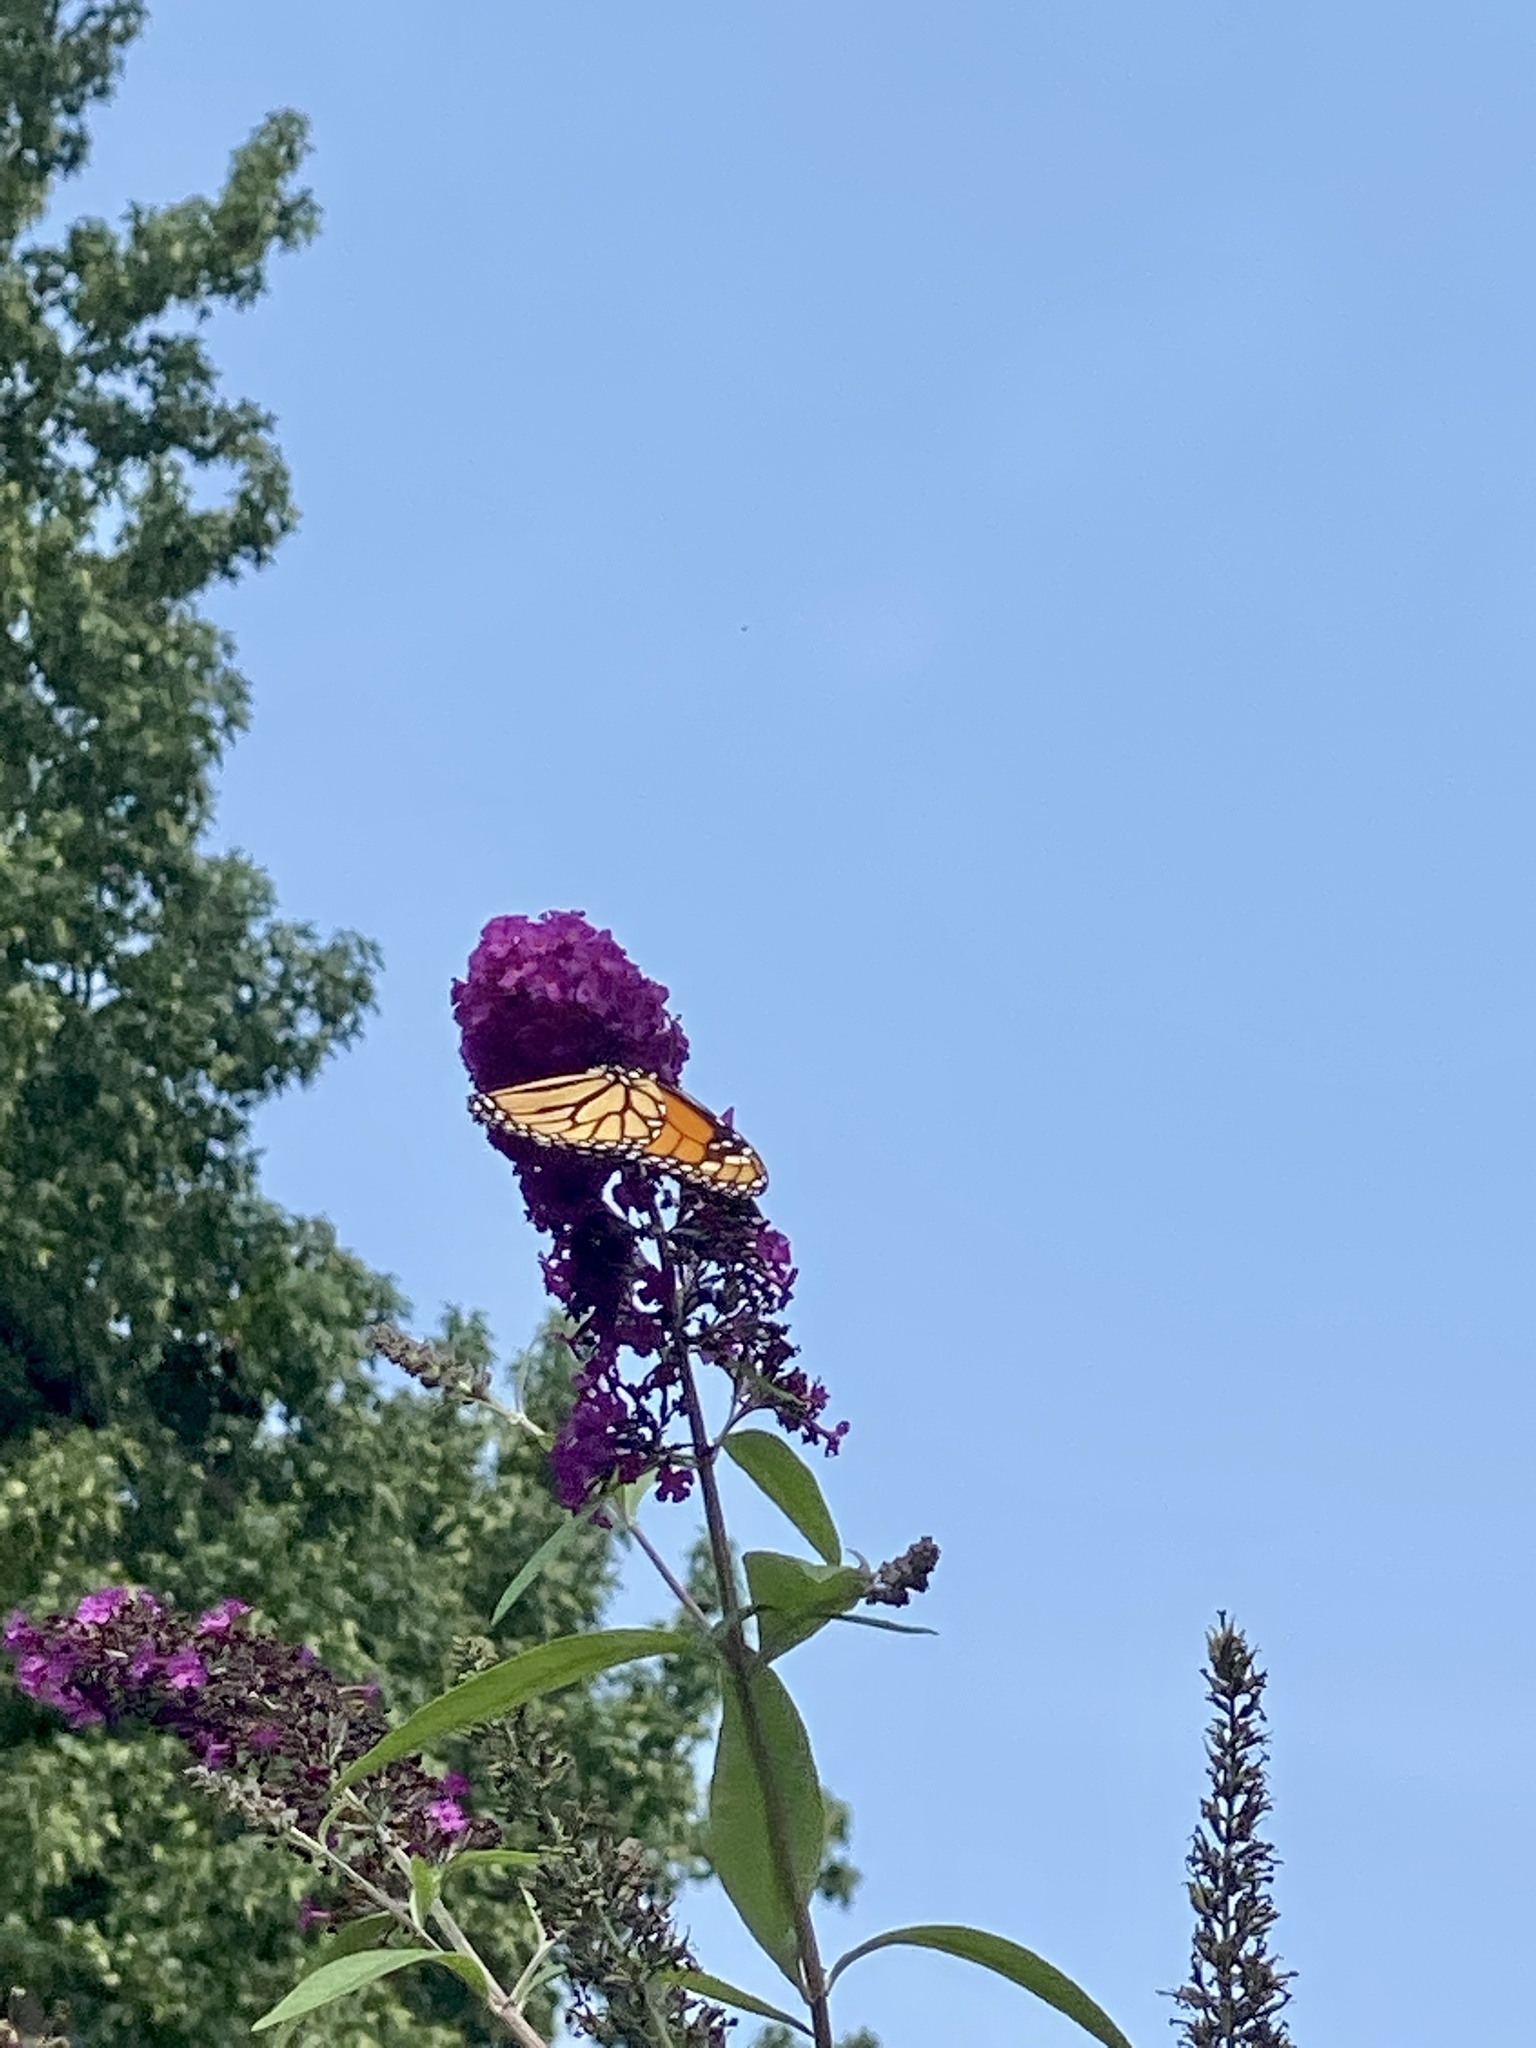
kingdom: Animalia
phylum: Arthropoda
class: Insecta
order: Lepidoptera
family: Nymphalidae
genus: Danaus
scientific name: Danaus plexippus
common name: Monarch
